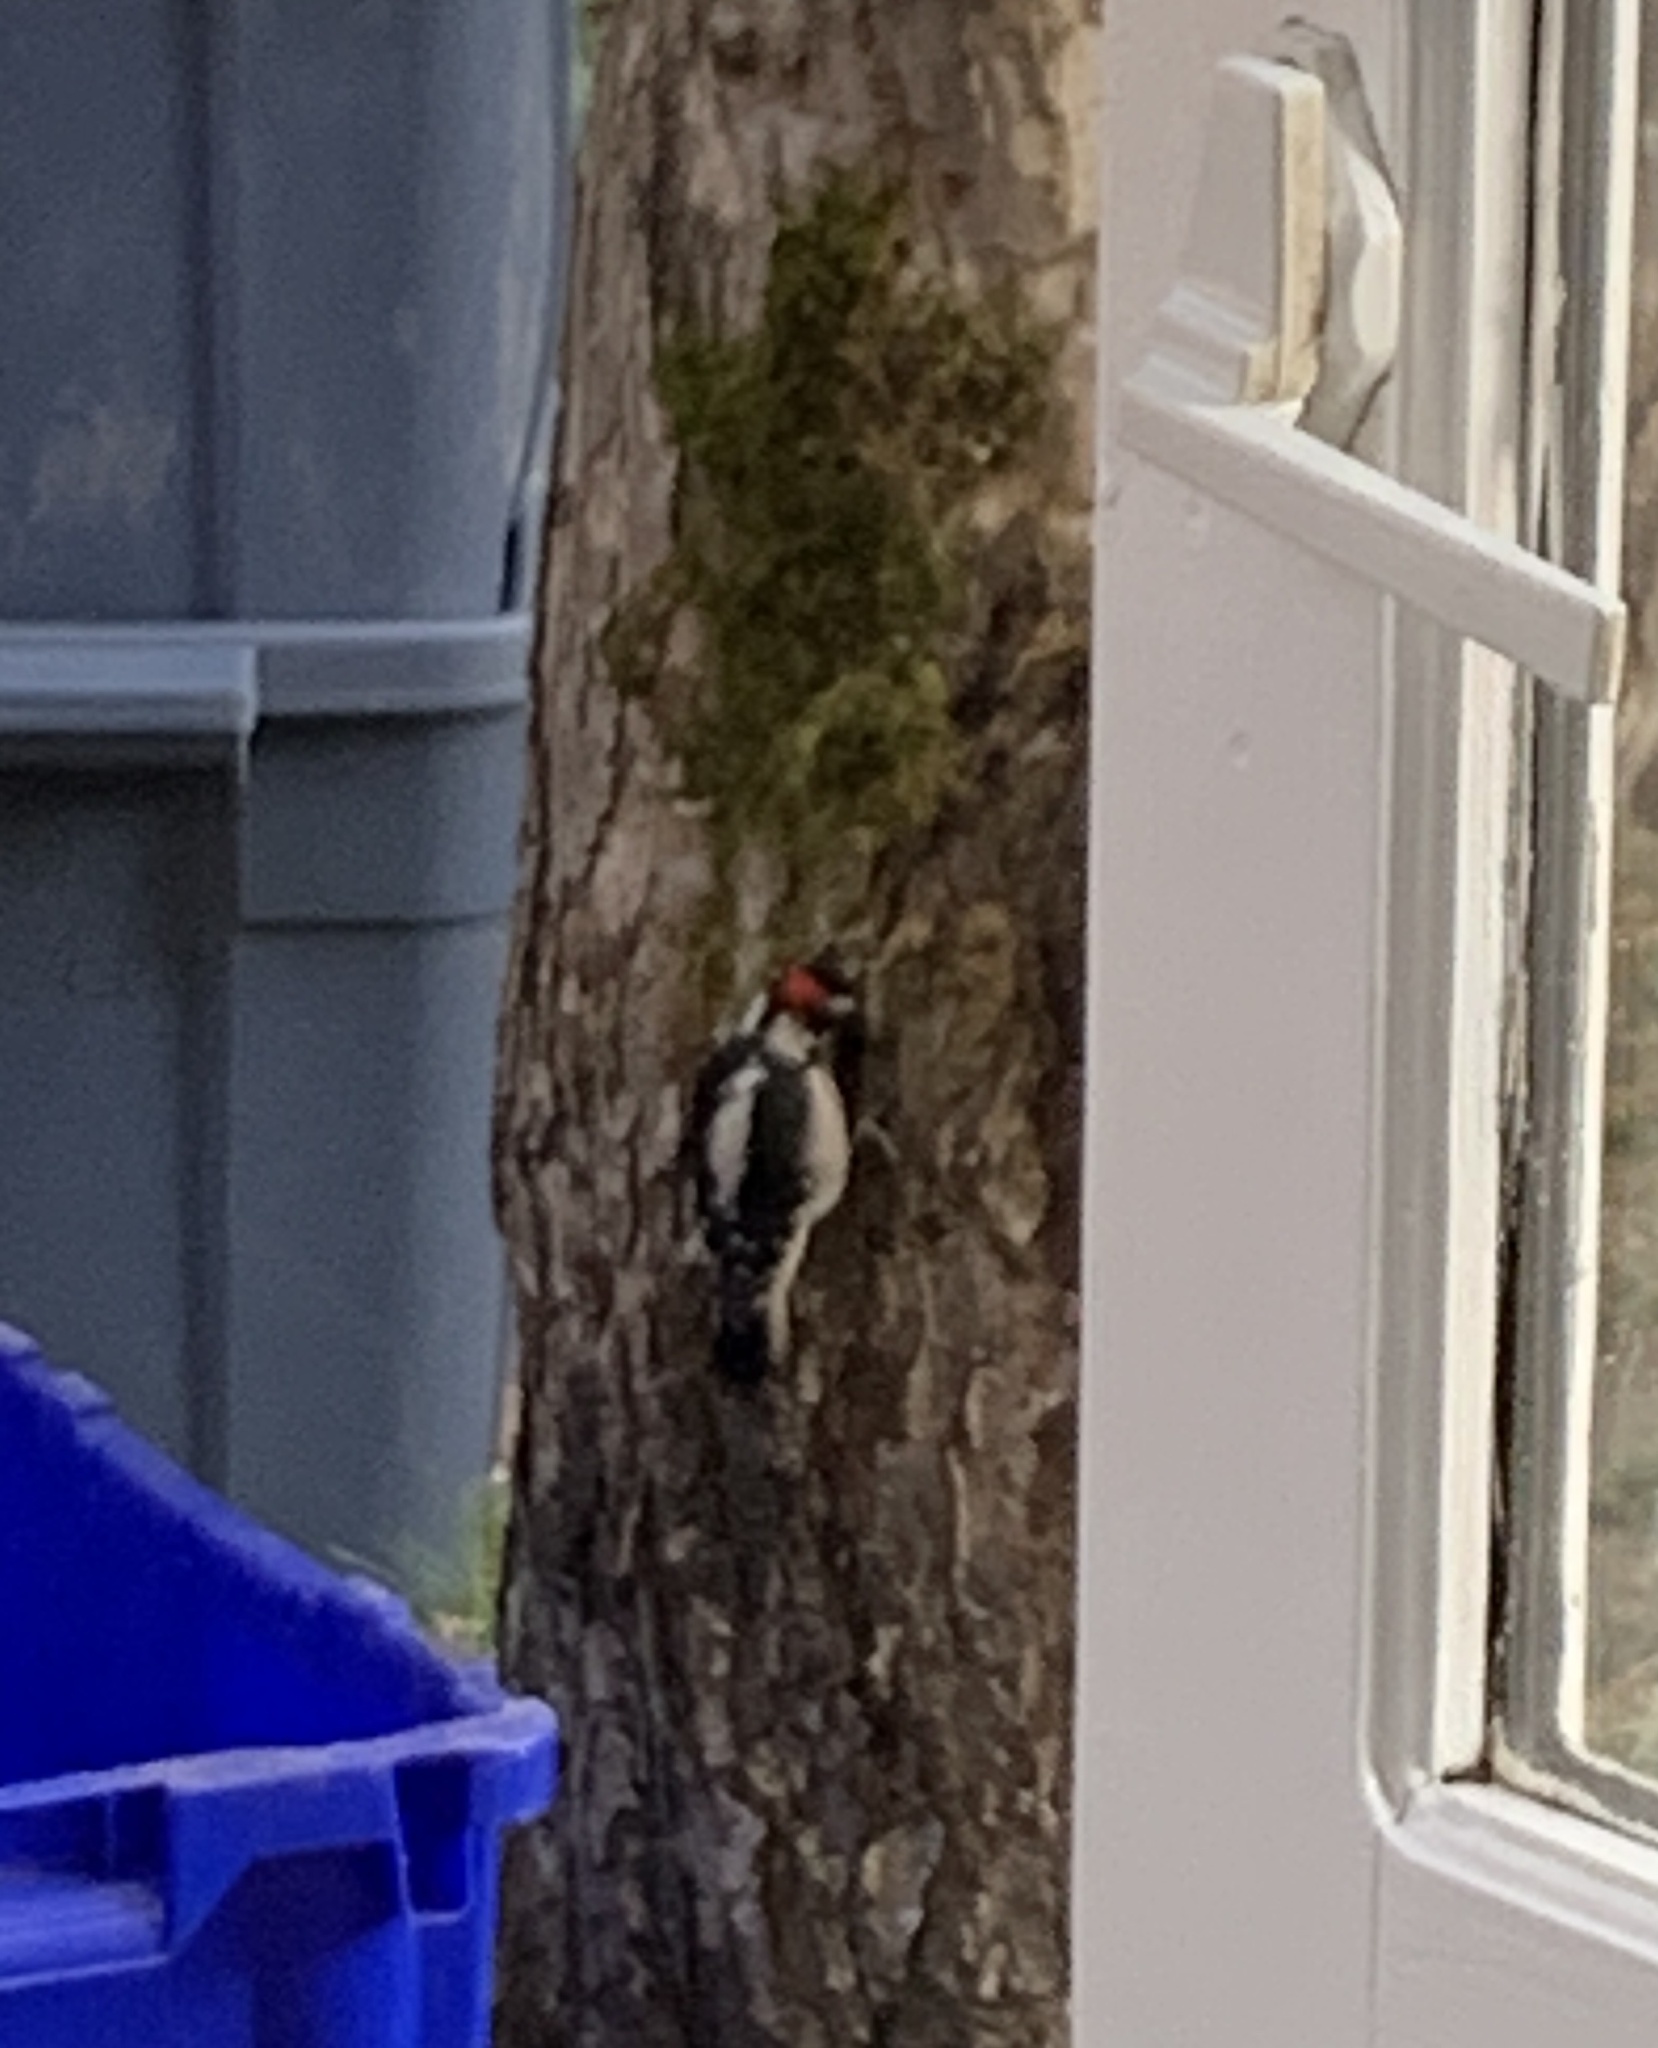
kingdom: Animalia
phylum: Chordata
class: Aves
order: Piciformes
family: Picidae
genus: Dryobates
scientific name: Dryobates pubescens
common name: Downy woodpecker
